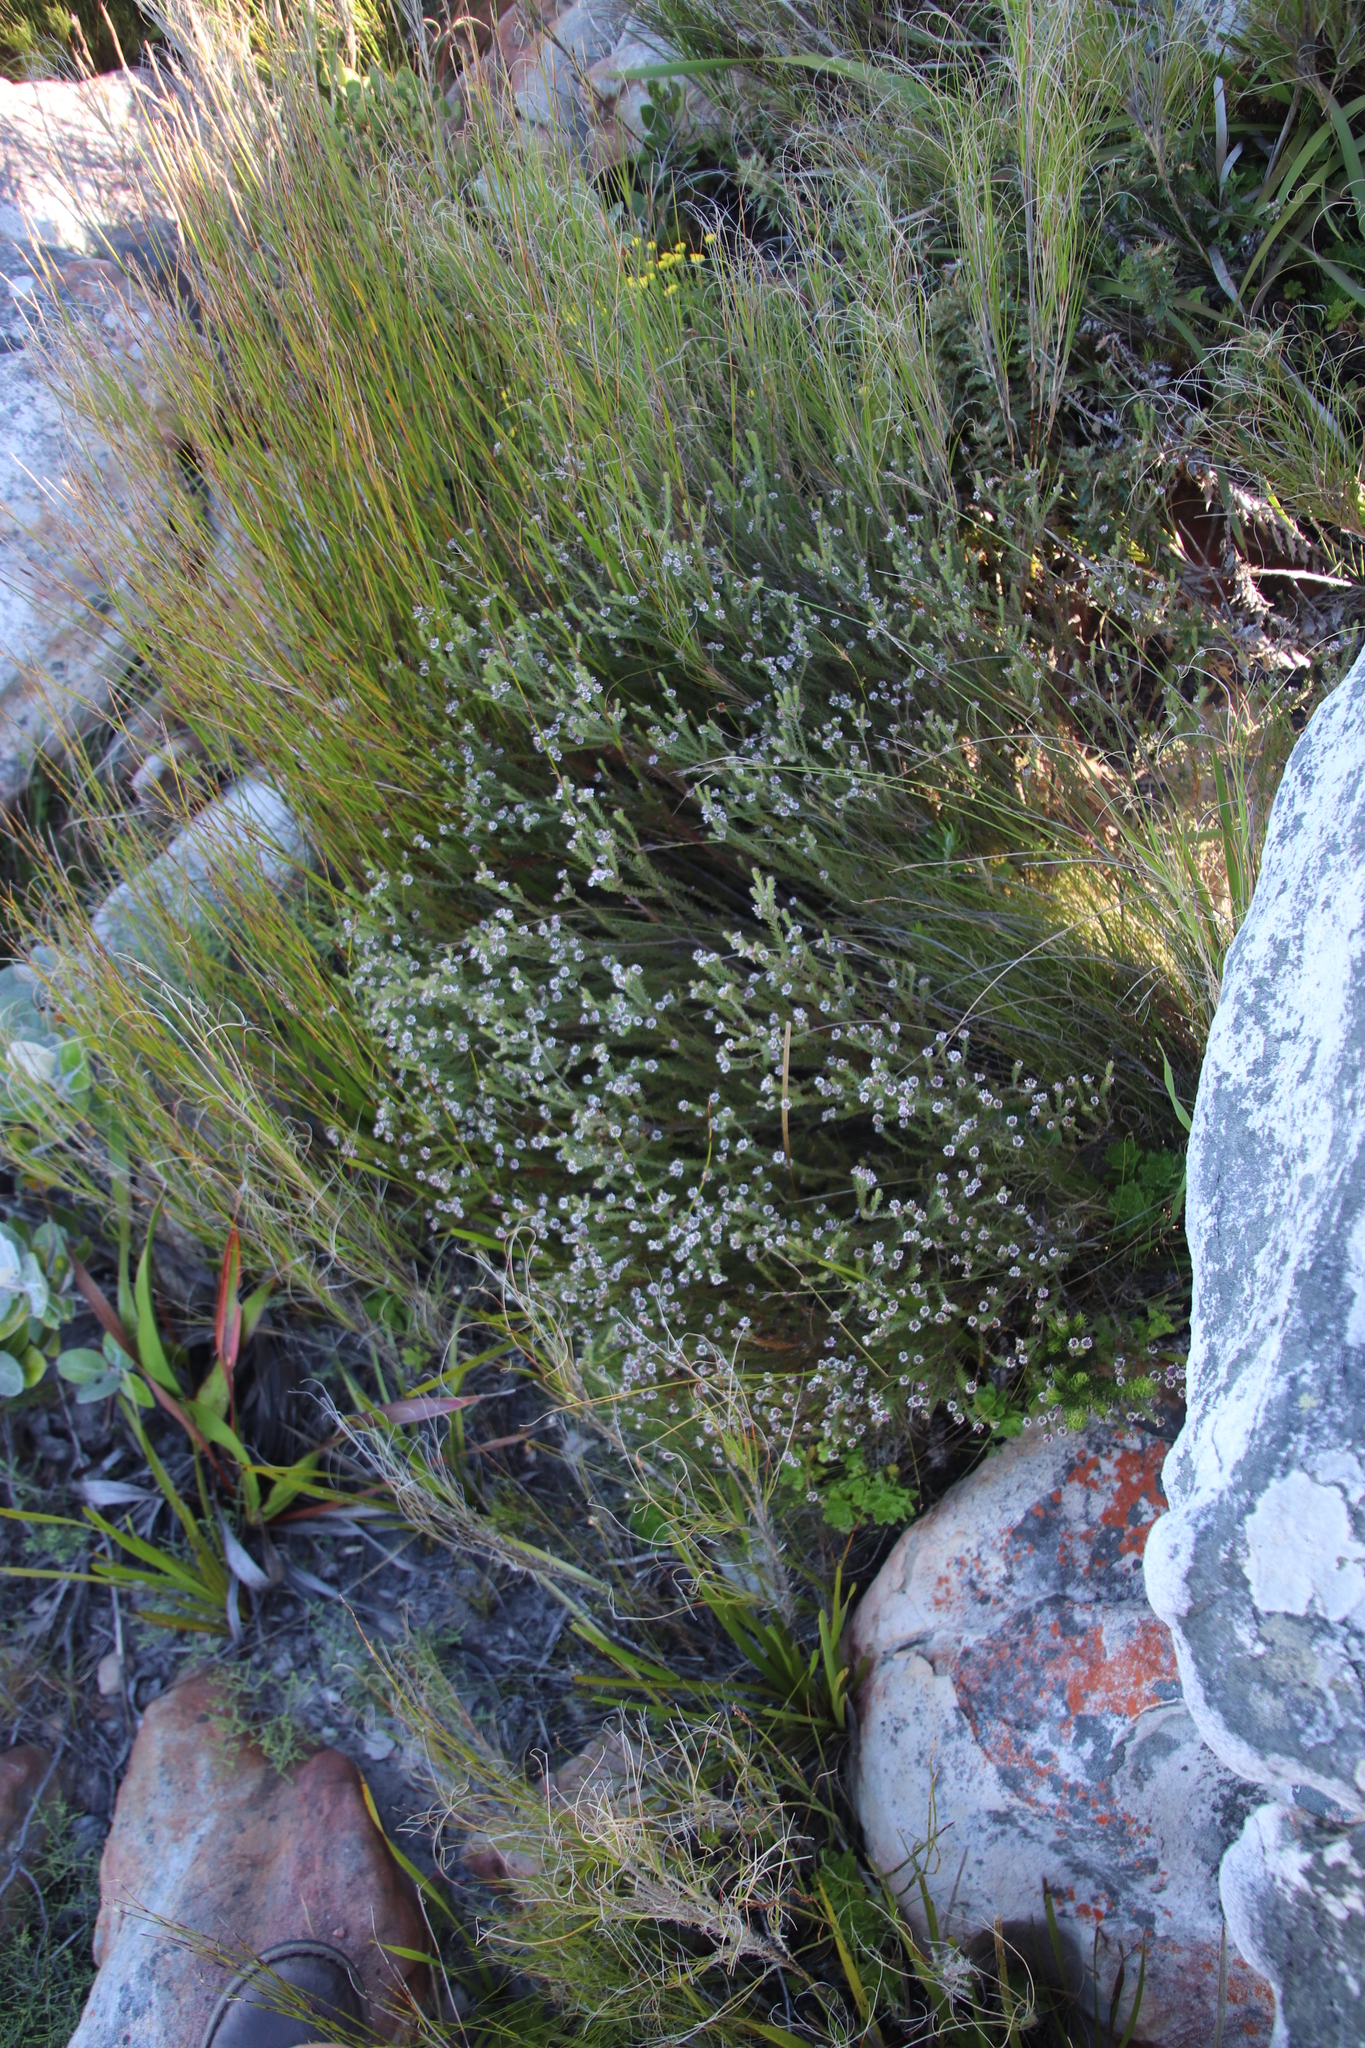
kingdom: Plantae
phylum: Tracheophyta
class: Magnoliopsida
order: Bruniales
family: Bruniaceae
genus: Staavia
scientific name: Staavia radiata
